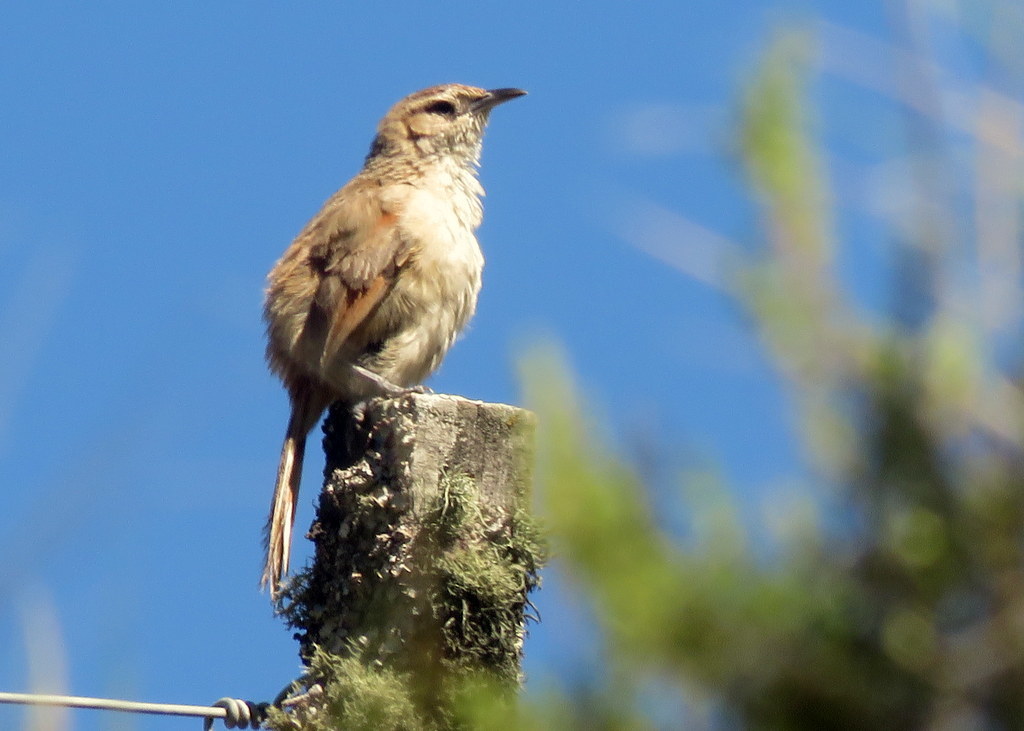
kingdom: Animalia
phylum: Chordata
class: Aves
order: Passeriformes
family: Furnariidae
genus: Phacellodomus
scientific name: Phacellodomus striaticeps
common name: Streak-fronted thornbird
